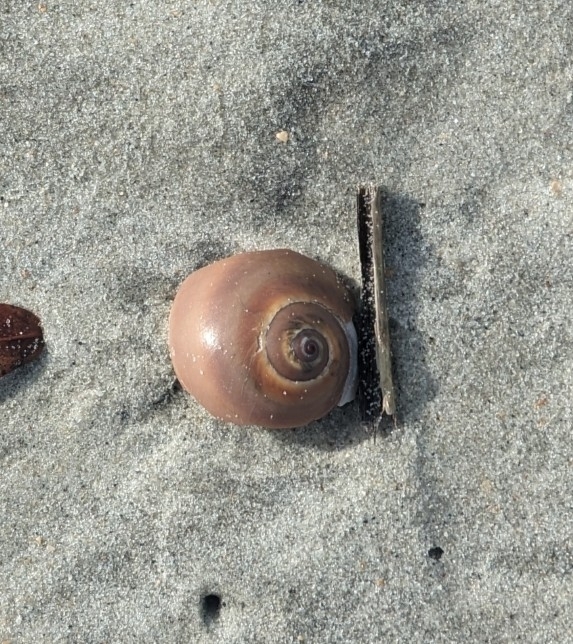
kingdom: Animalia
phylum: Mollusca
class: Gastropoda
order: Littorinimorpha
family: Naticidae
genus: Neverita
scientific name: Neverita duplicata
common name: Lobed moonsnail
